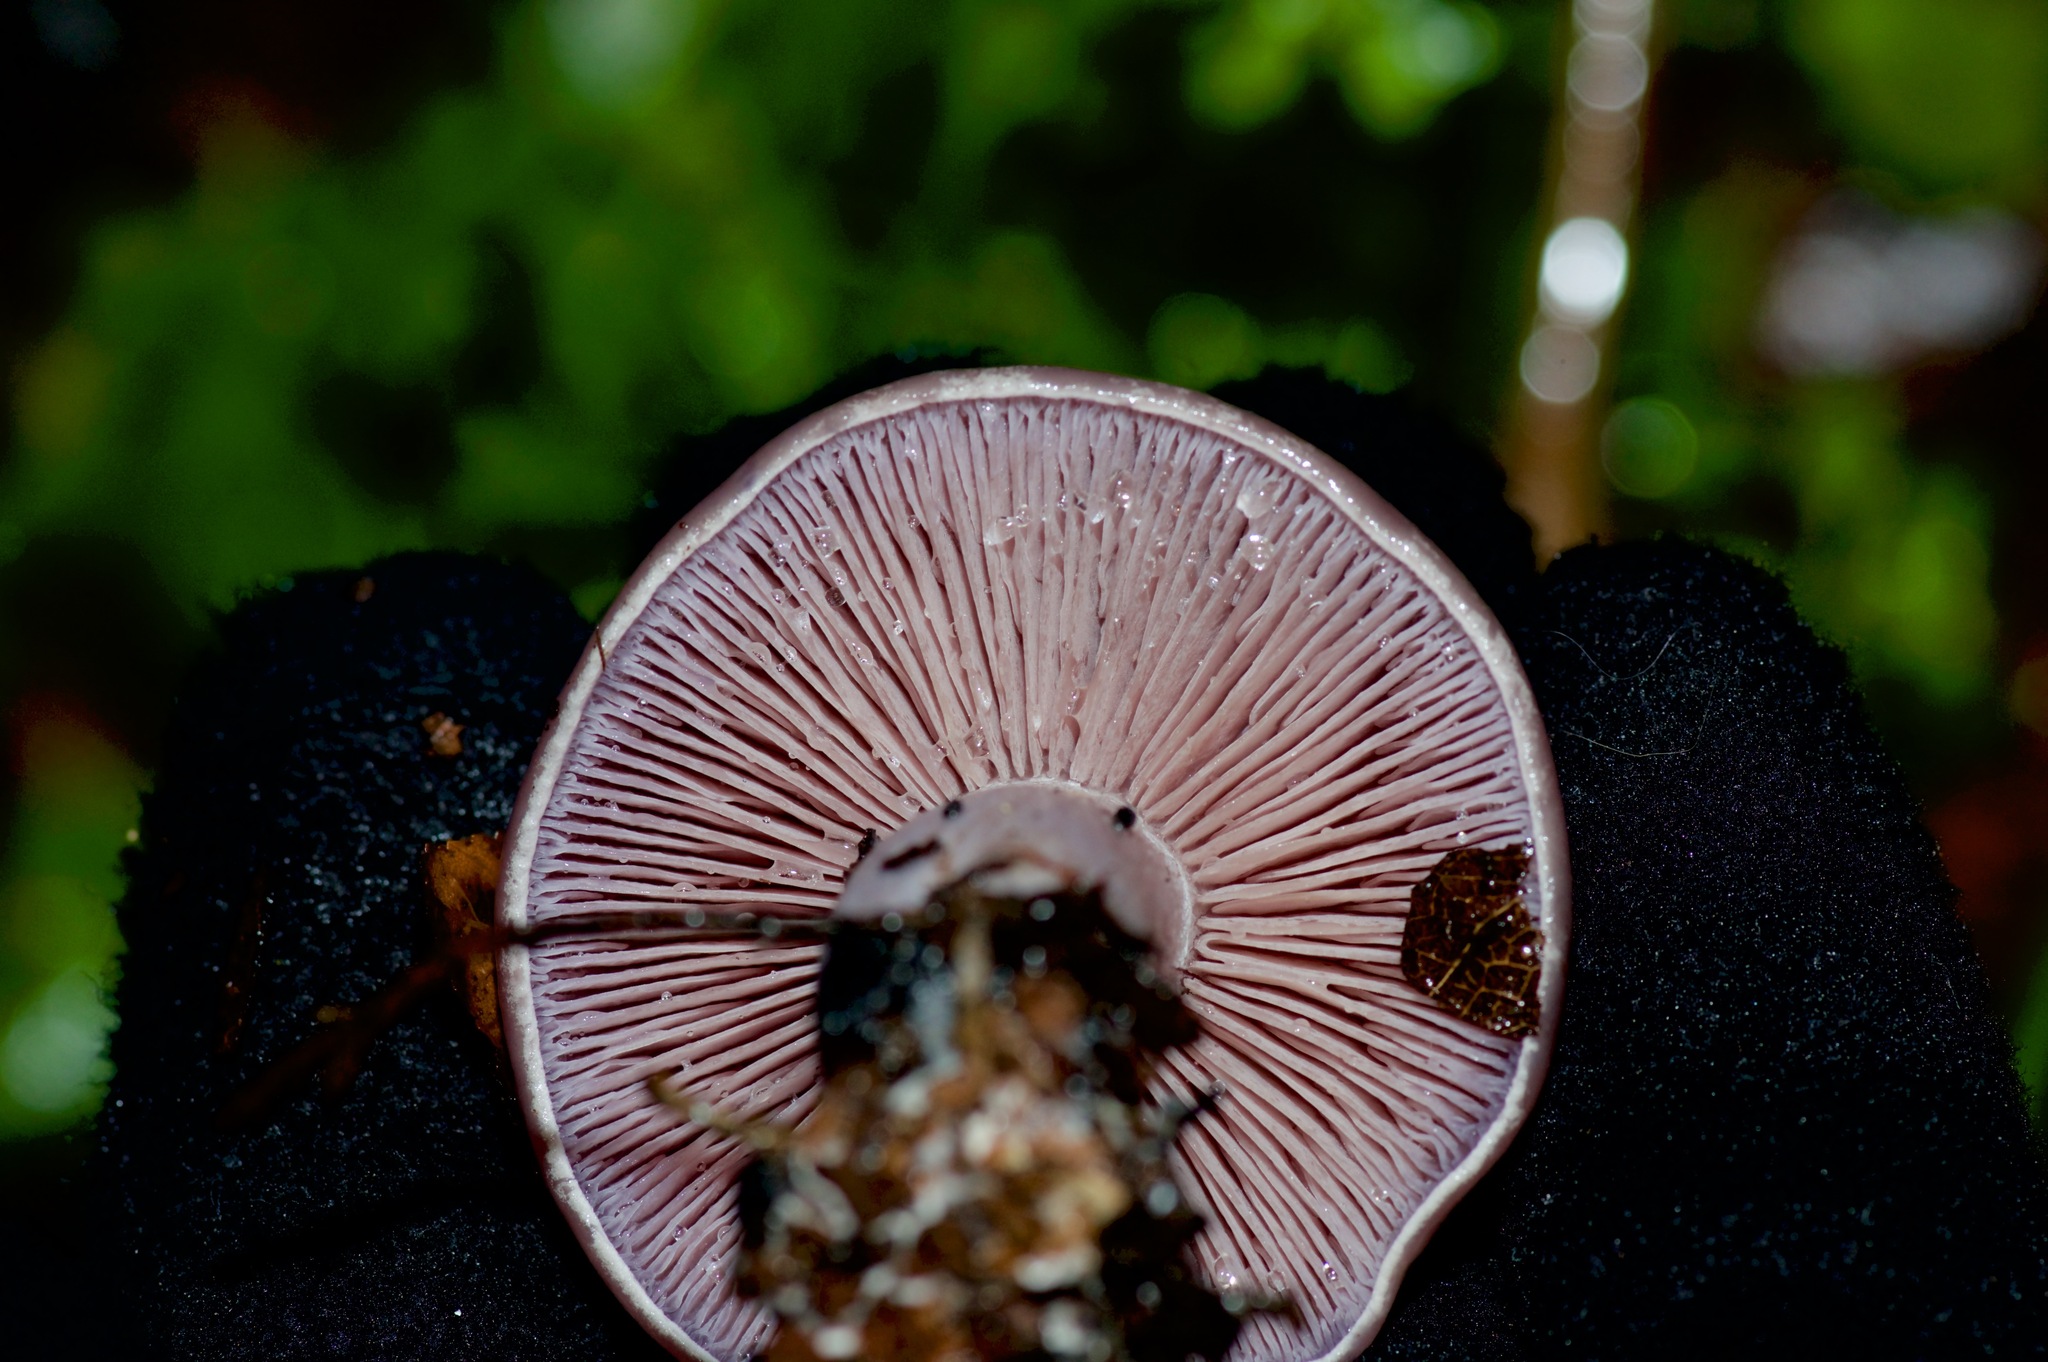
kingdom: Fungi
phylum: Basidiomycota
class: Agaricomycetes
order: Agaricales
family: Tricholomataceae
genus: Collybia
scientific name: Collybia
